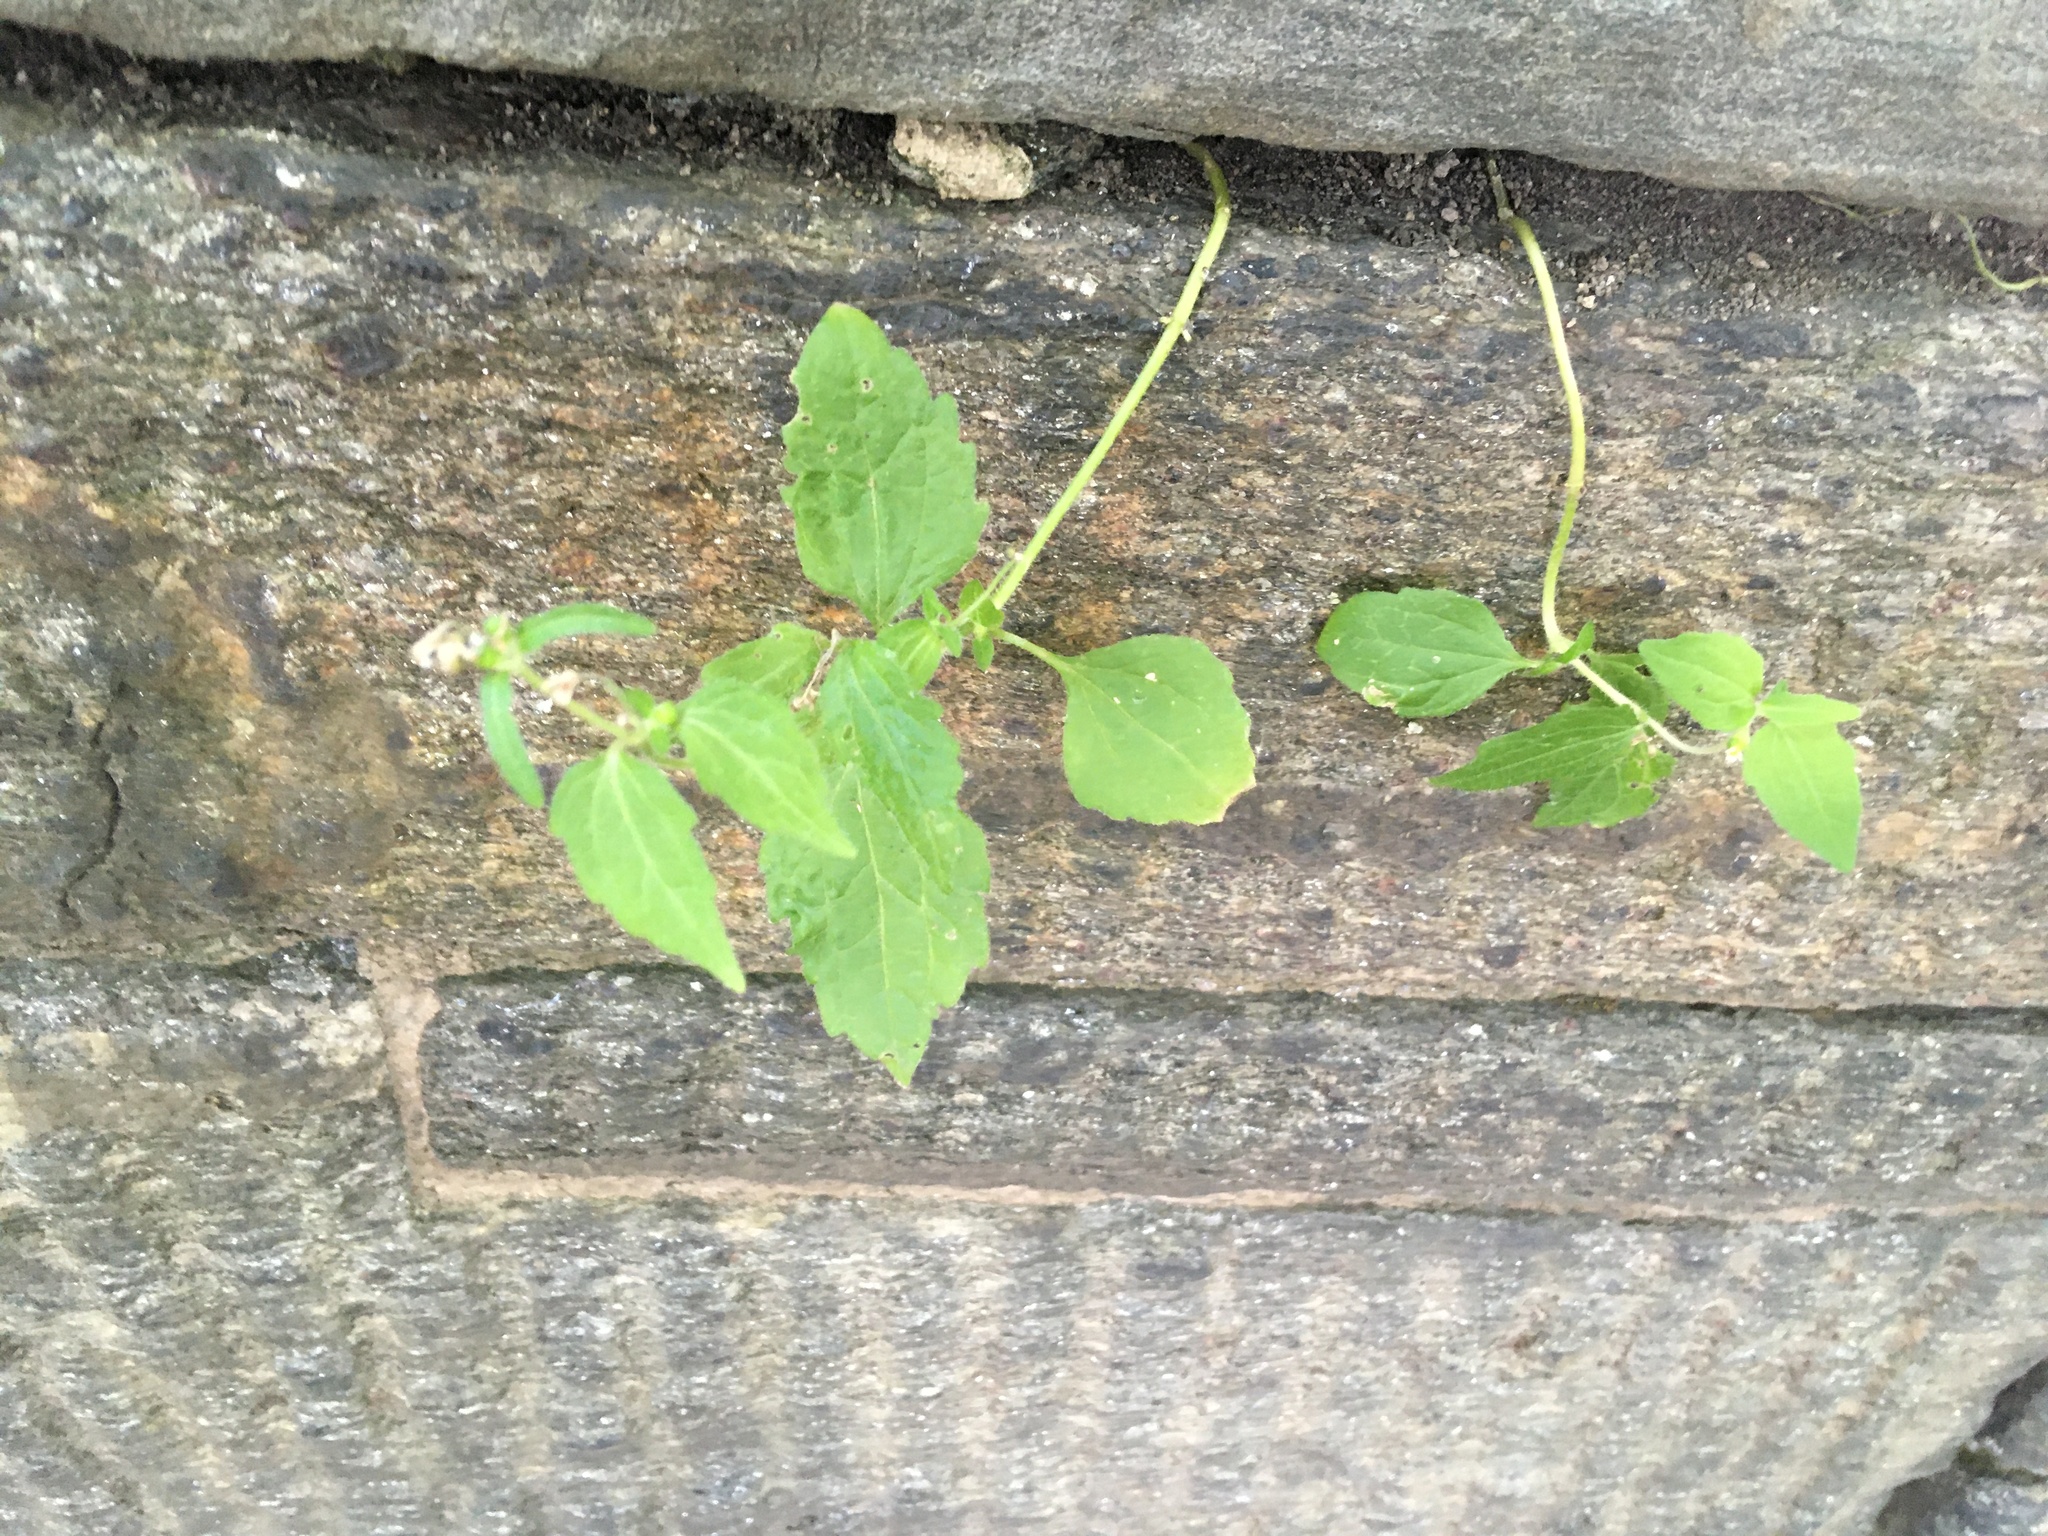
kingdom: Plantae
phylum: Tracheophyta
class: Magnoliopsida
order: Asterales
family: Asteraceae
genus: Galinsoga
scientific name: Galinsoga quadriradiata
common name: Shaggy soldier
